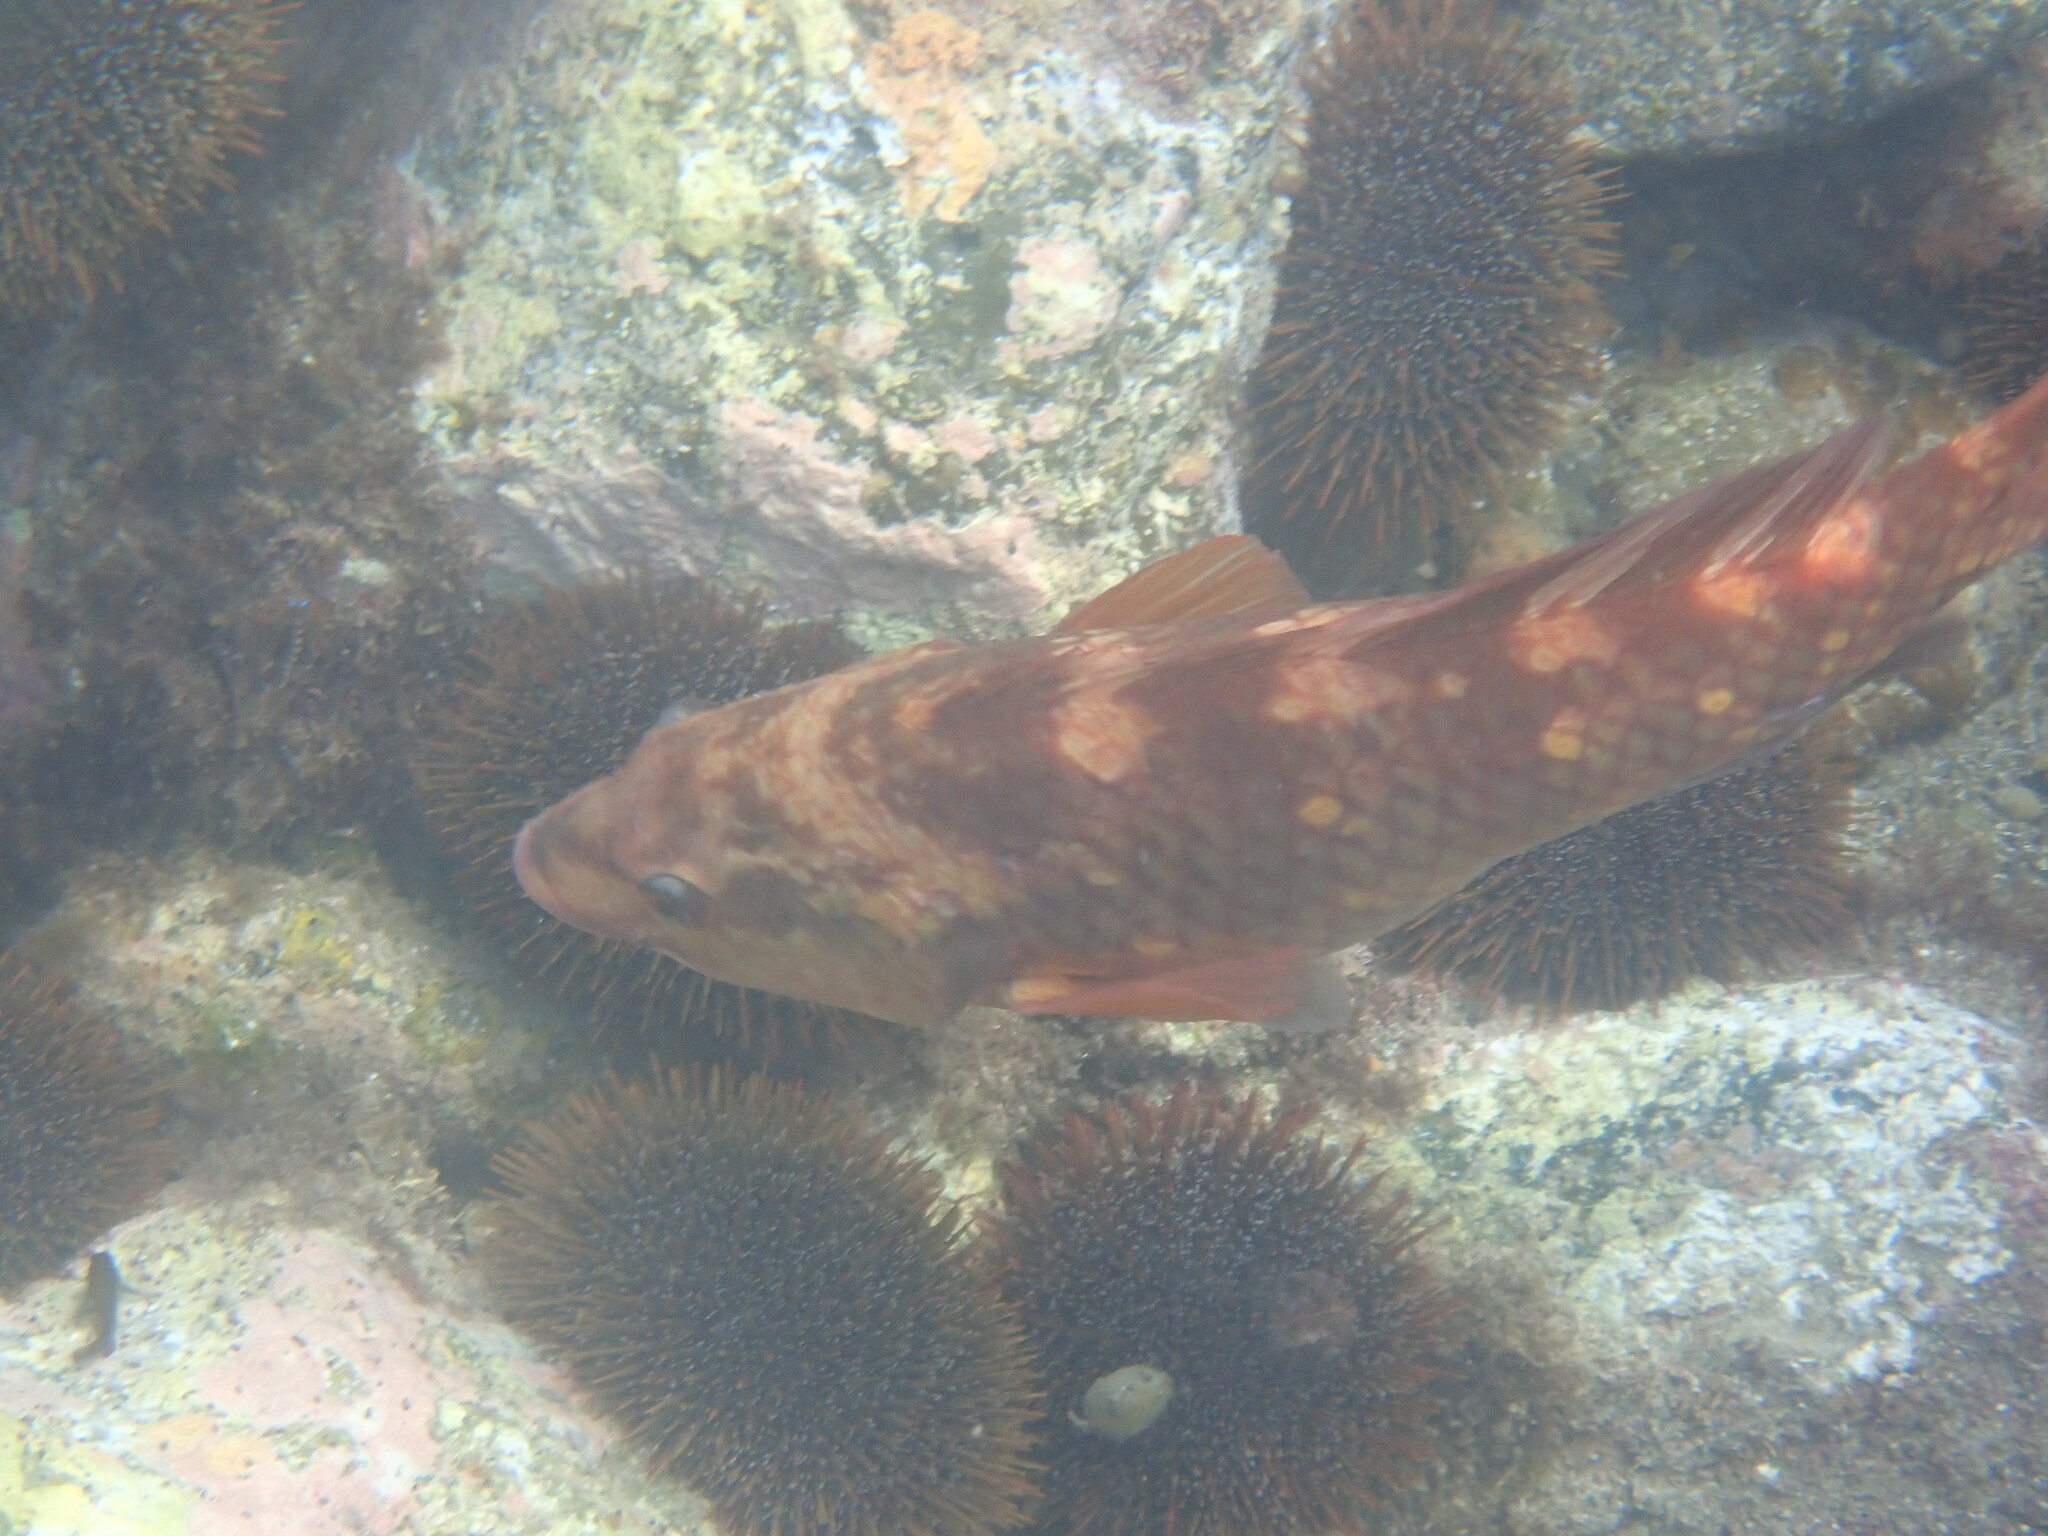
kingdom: Animalia
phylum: Chordata
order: Perciformes
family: Labridae
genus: Notolabrus
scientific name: Notolabrus fucicola
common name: Banded parrotfish
